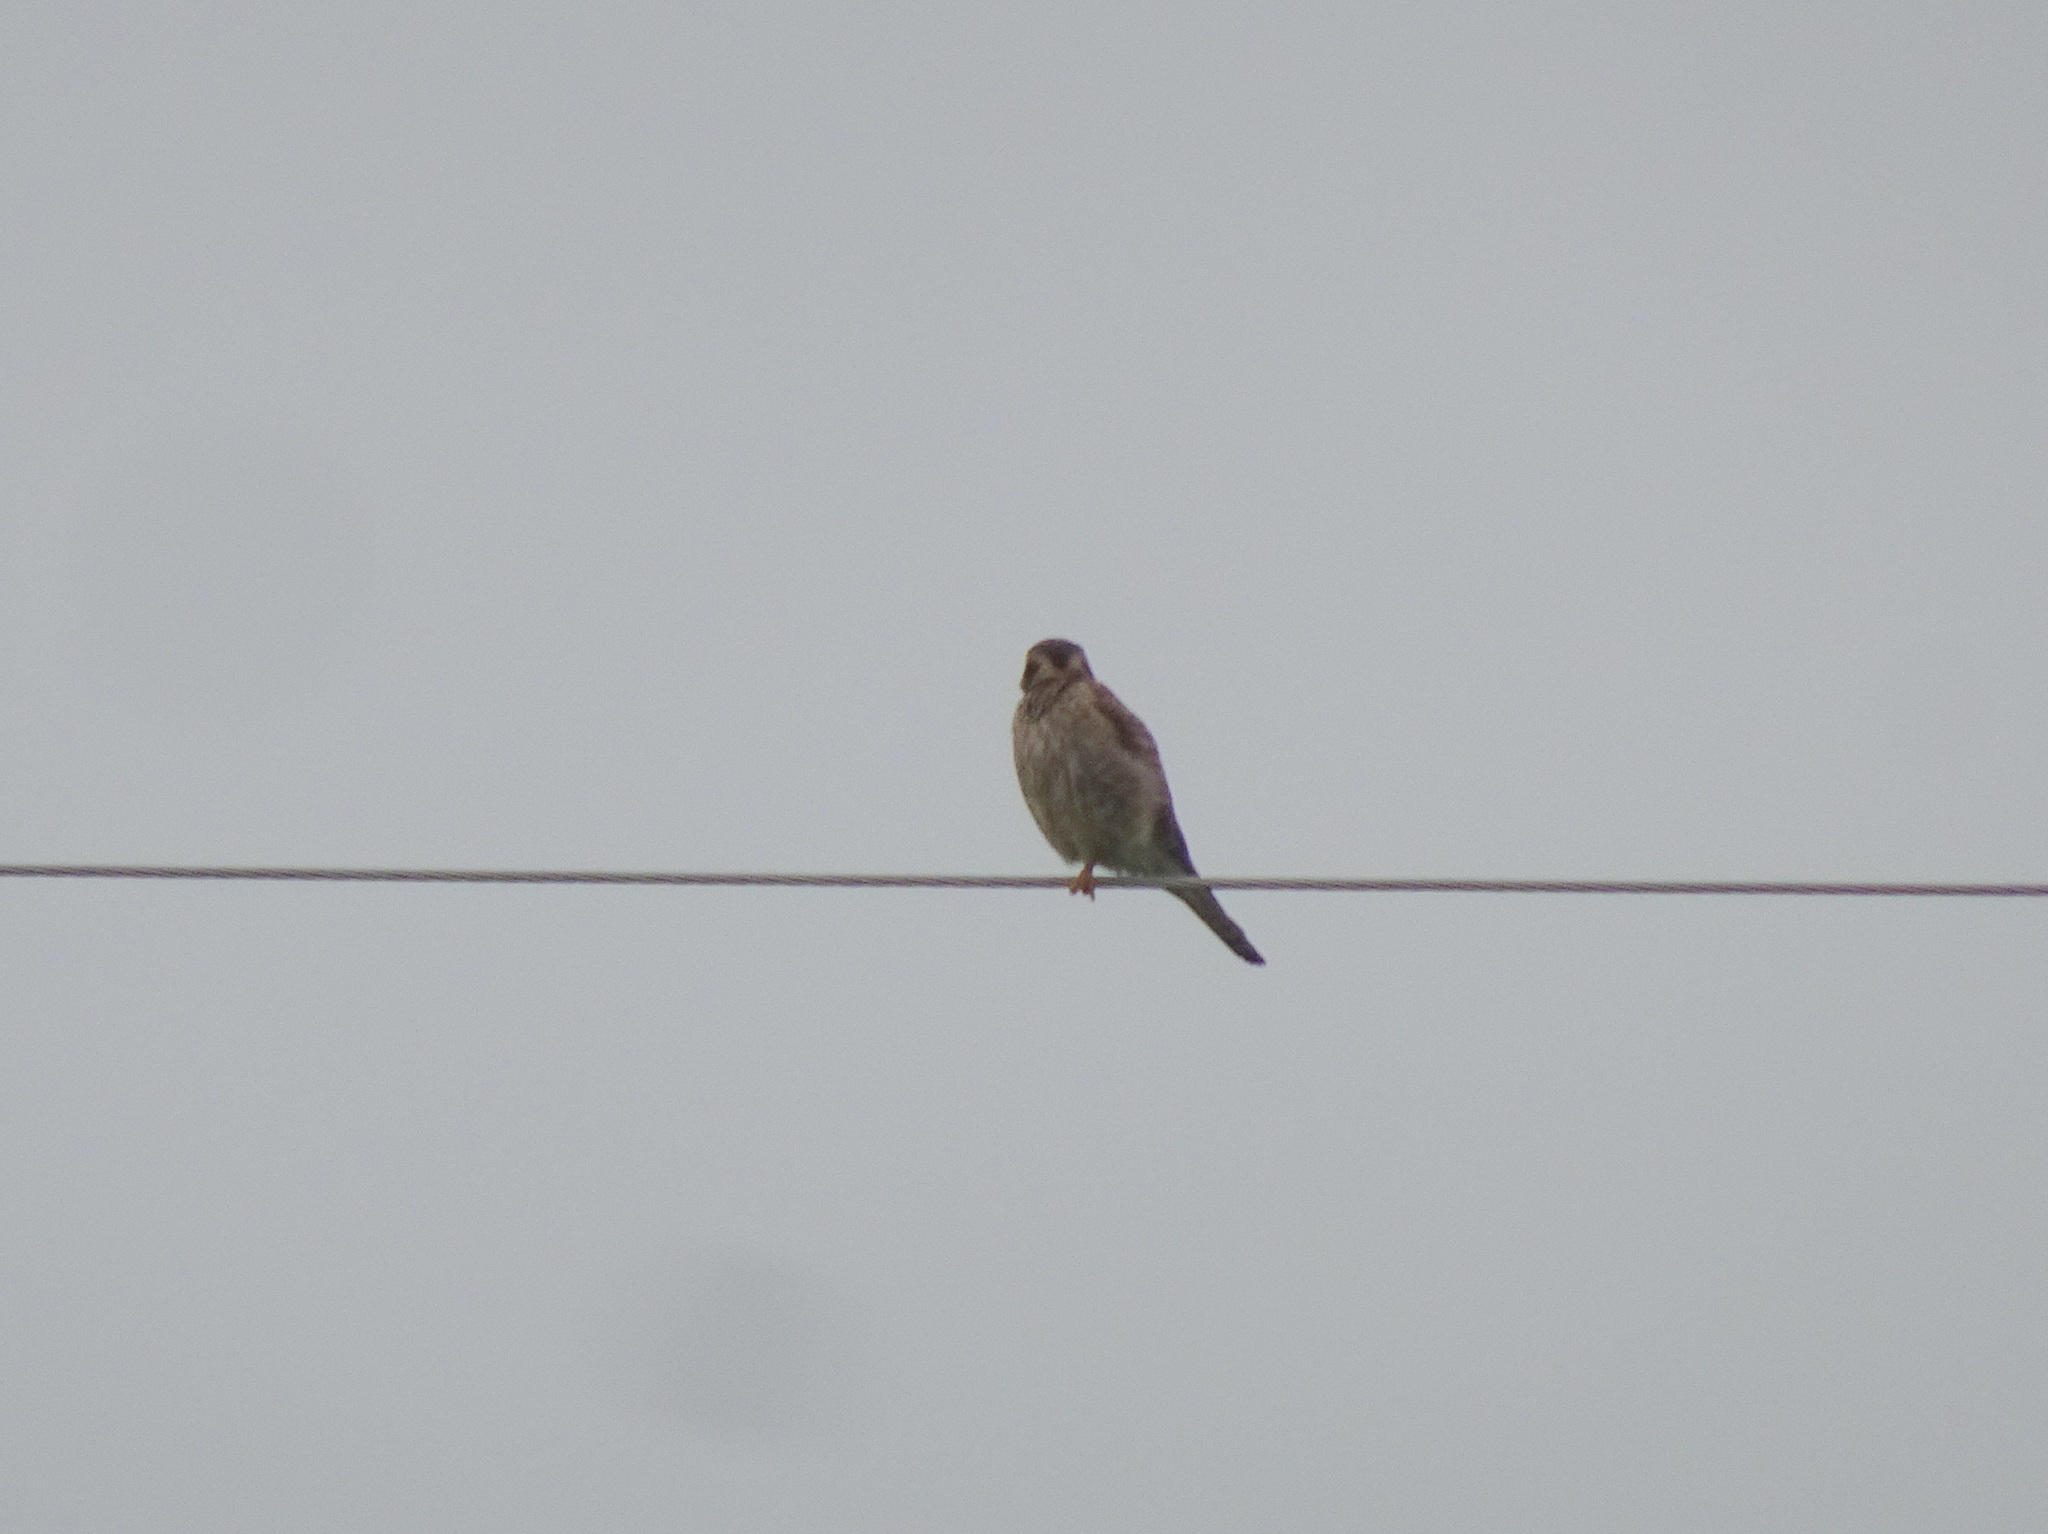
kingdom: Animalia
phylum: Chordata
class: Aves
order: Falconiformes
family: Falconidae
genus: Falco
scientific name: Falco sparverius
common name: American kestrel
